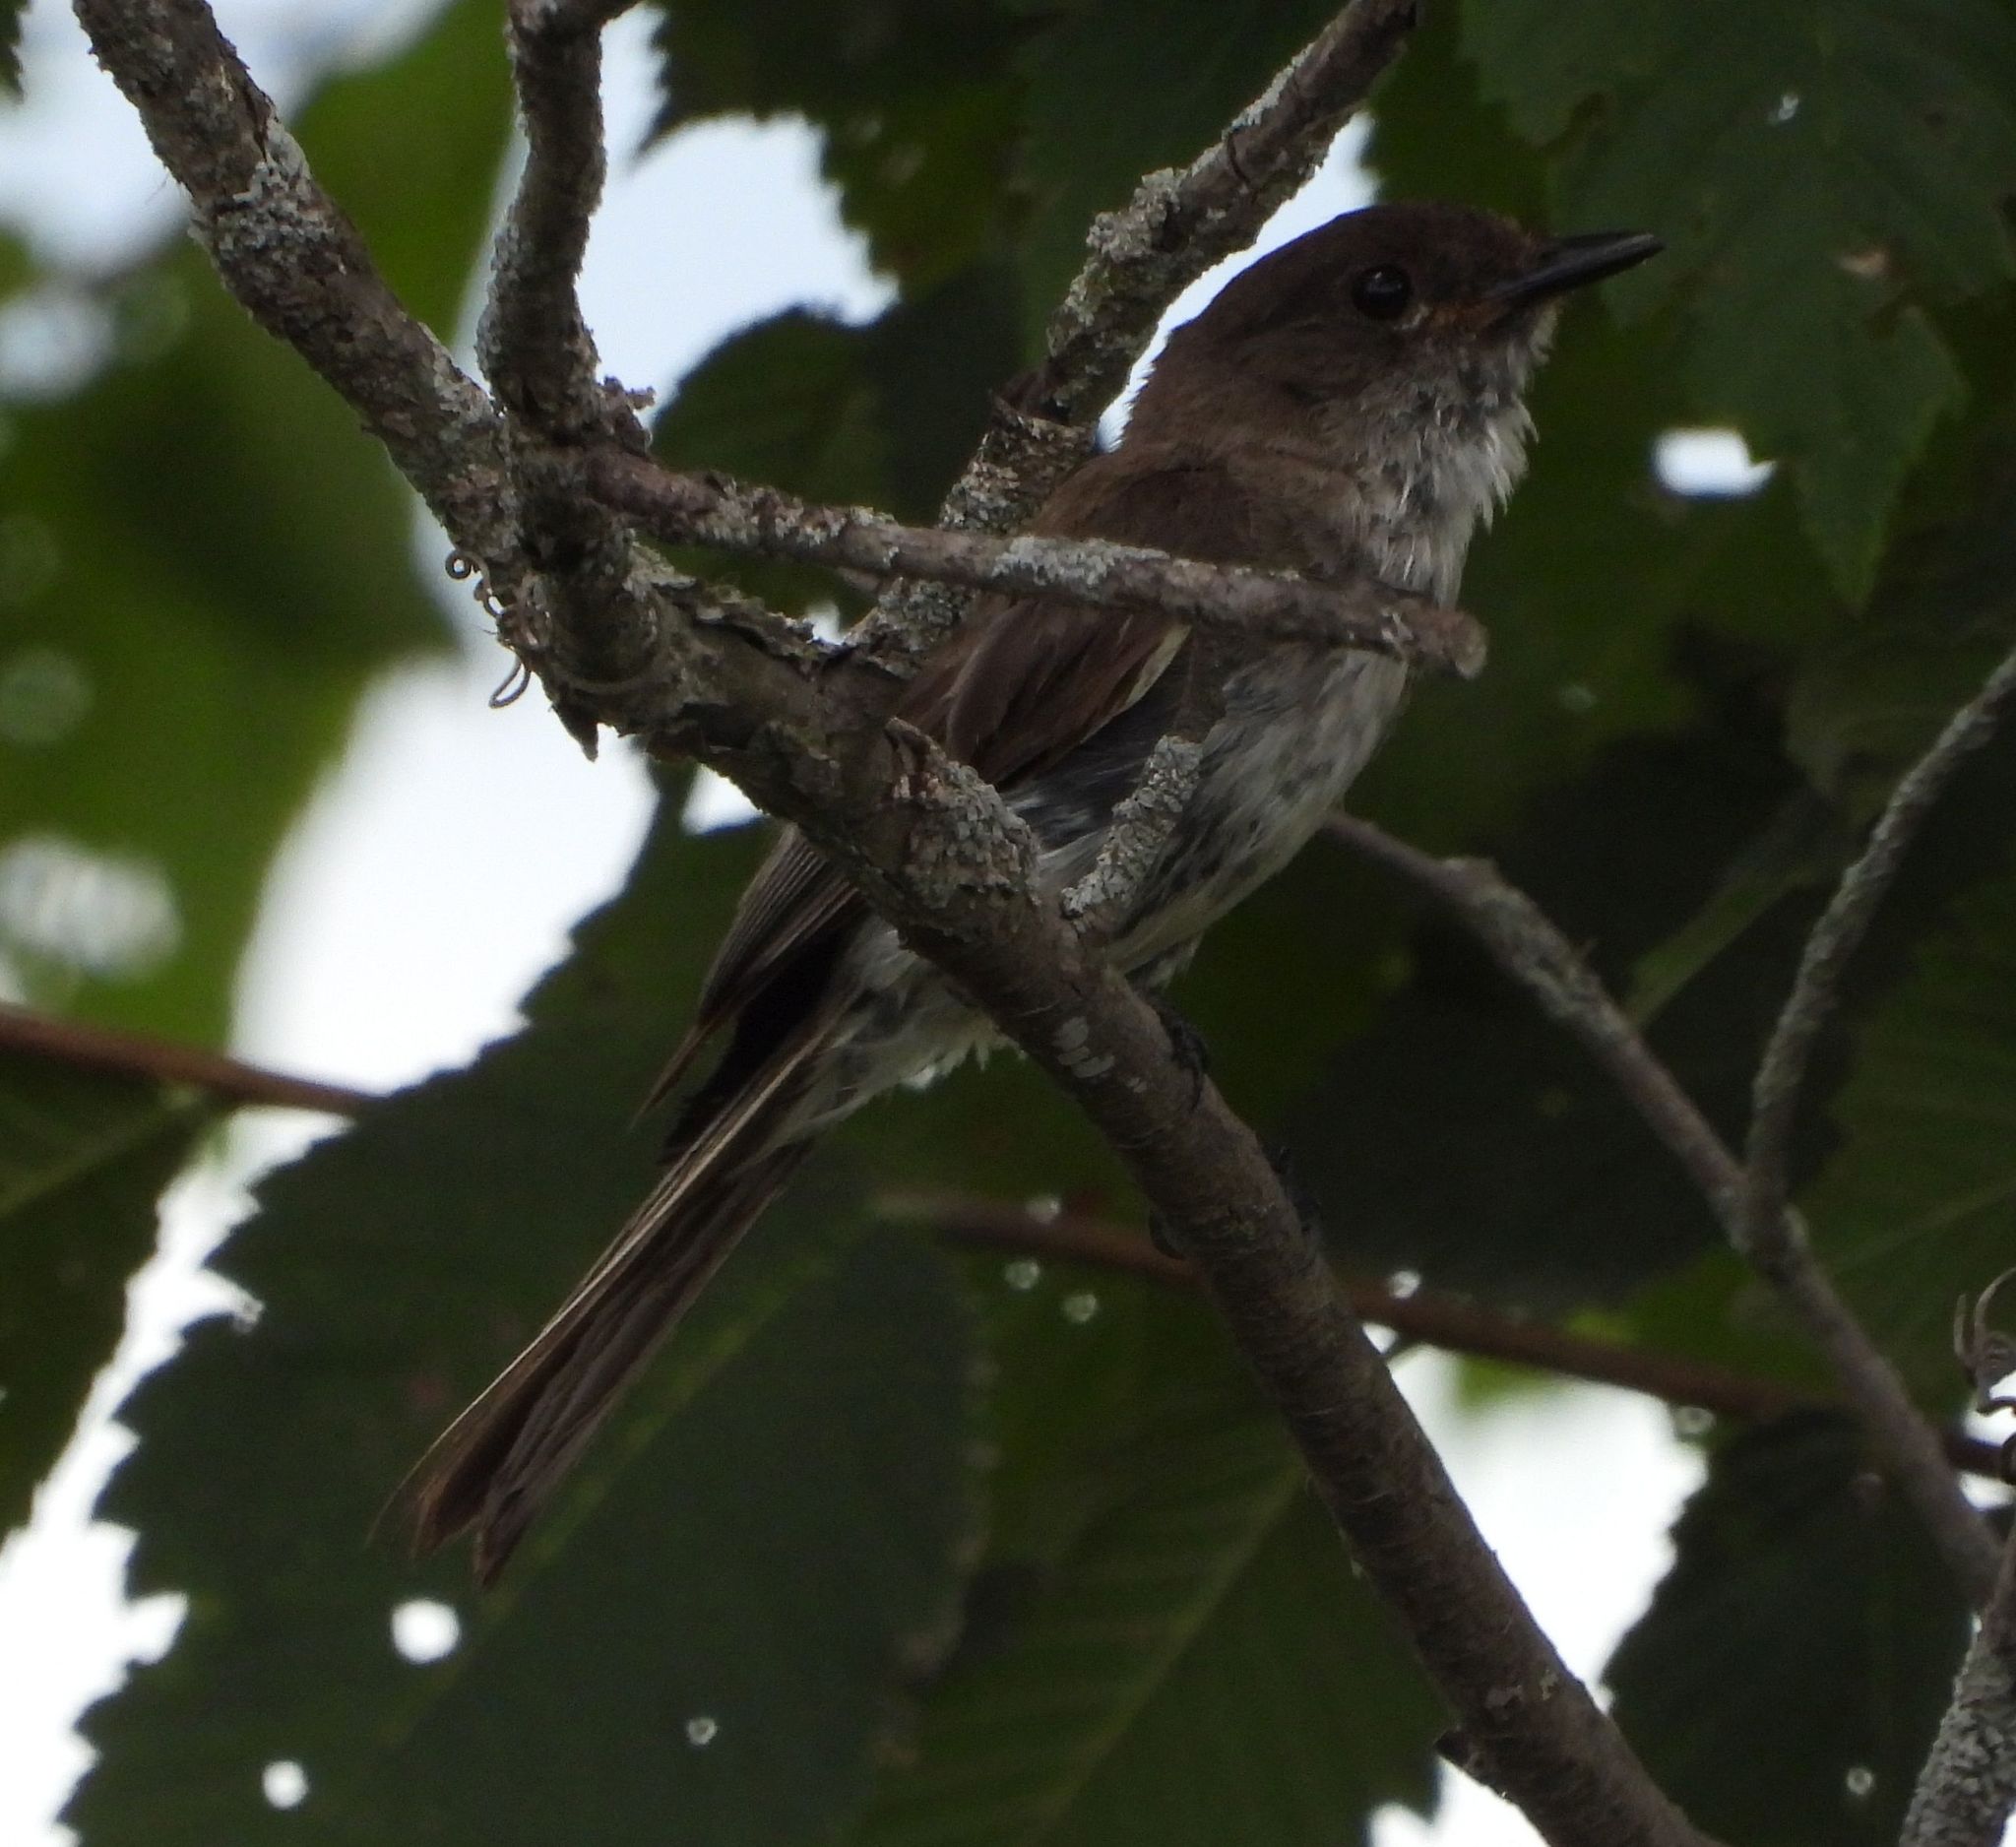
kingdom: Animalia
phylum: Chordata
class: Aves
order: Passeriformes
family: Tyrannidae
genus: Sayornis
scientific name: Sayornis phoebe
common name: Eastern phoebe
